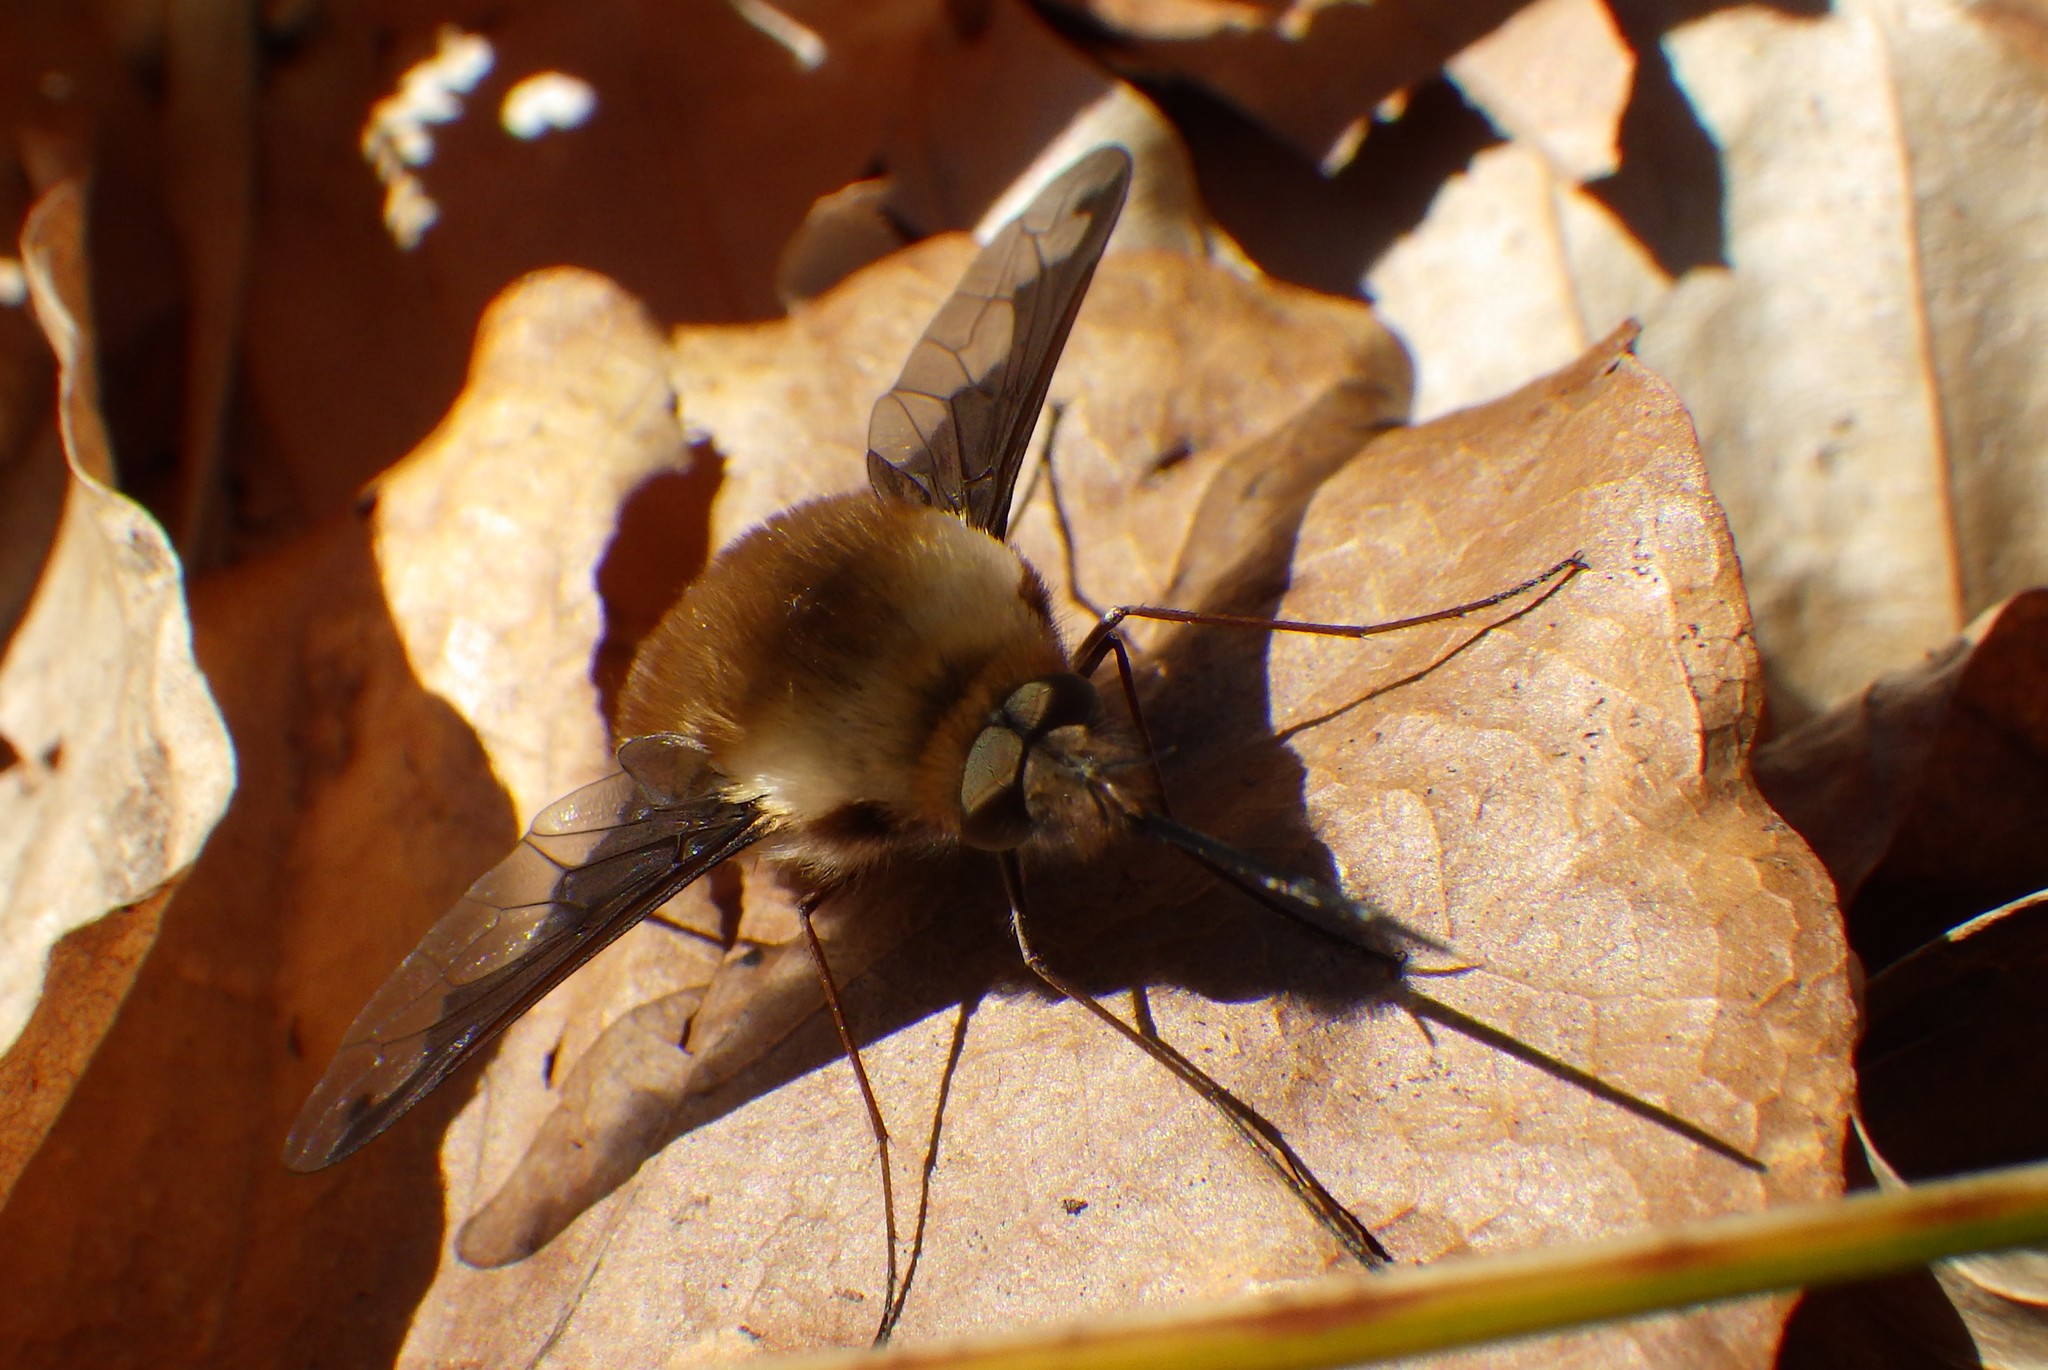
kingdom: Animalia
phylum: Arthropoda
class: Insecta
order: Diptera
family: Bombyliidae
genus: Bombylius
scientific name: Bombylius major
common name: Bee fly
